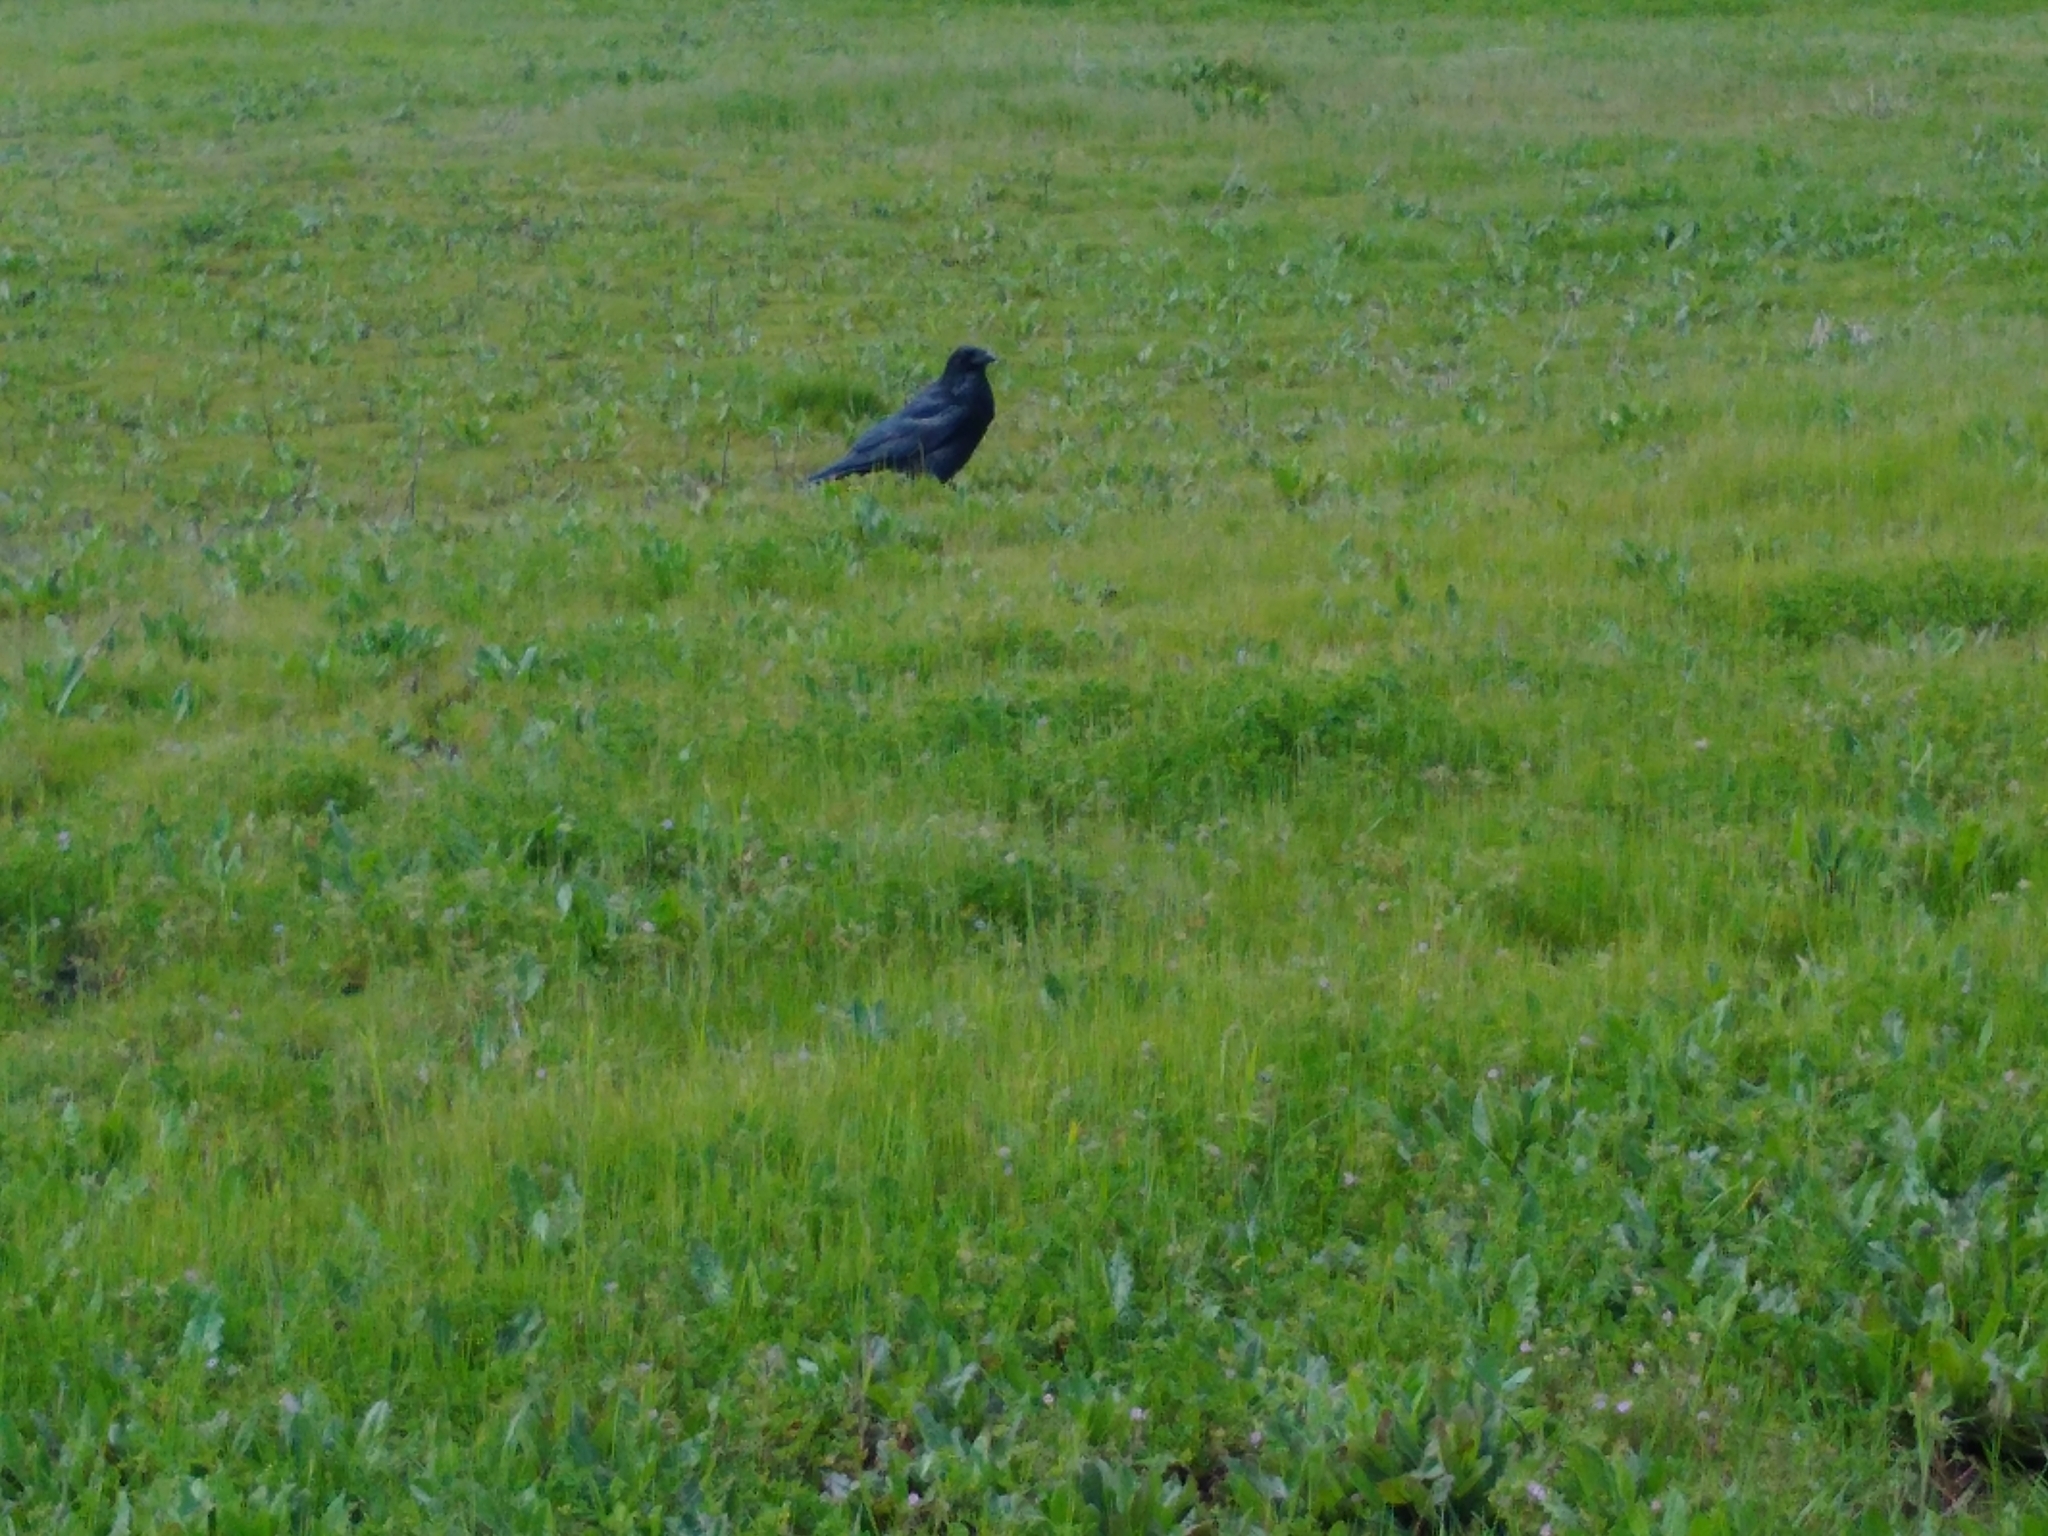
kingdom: Animalia
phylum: Chordata
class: Aves
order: Passeriformes
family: Corvidae
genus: Corvus
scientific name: Corvus corax
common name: Common raven
